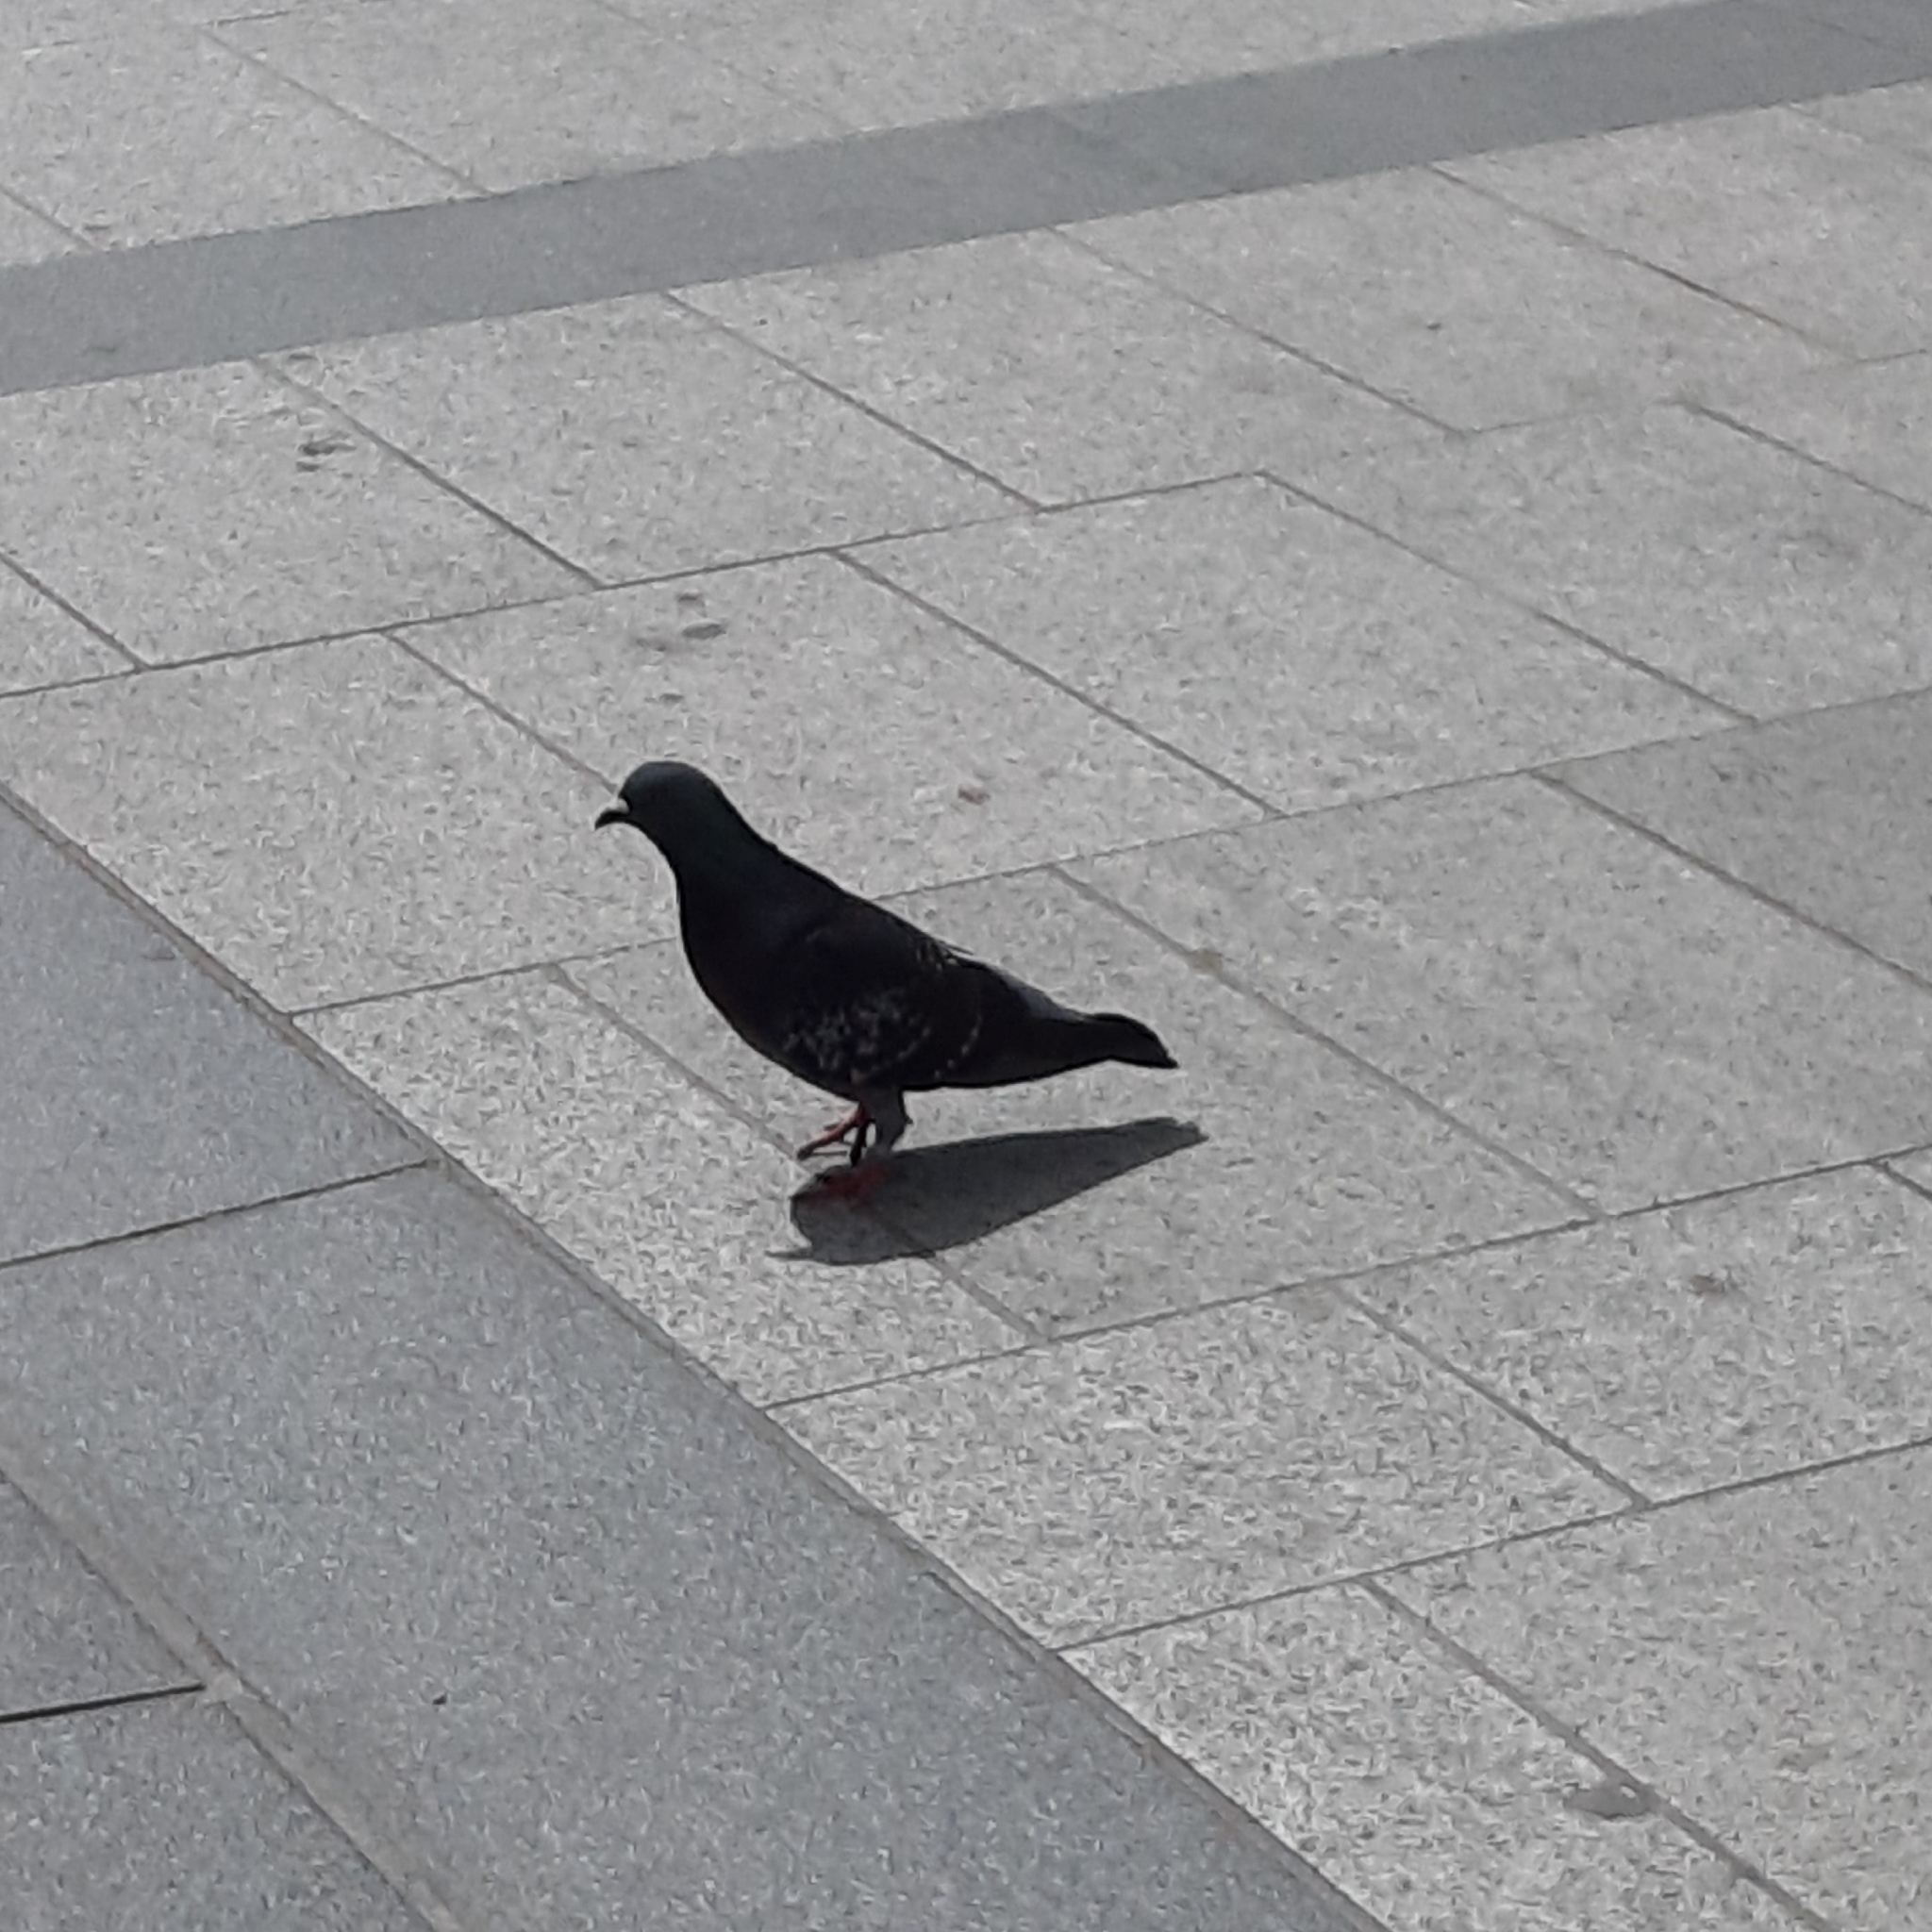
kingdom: Animalia
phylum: Chordata
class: Aves
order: Columbiformes
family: Columbidae
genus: Columba
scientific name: Columba livia
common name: Rock pigeon
